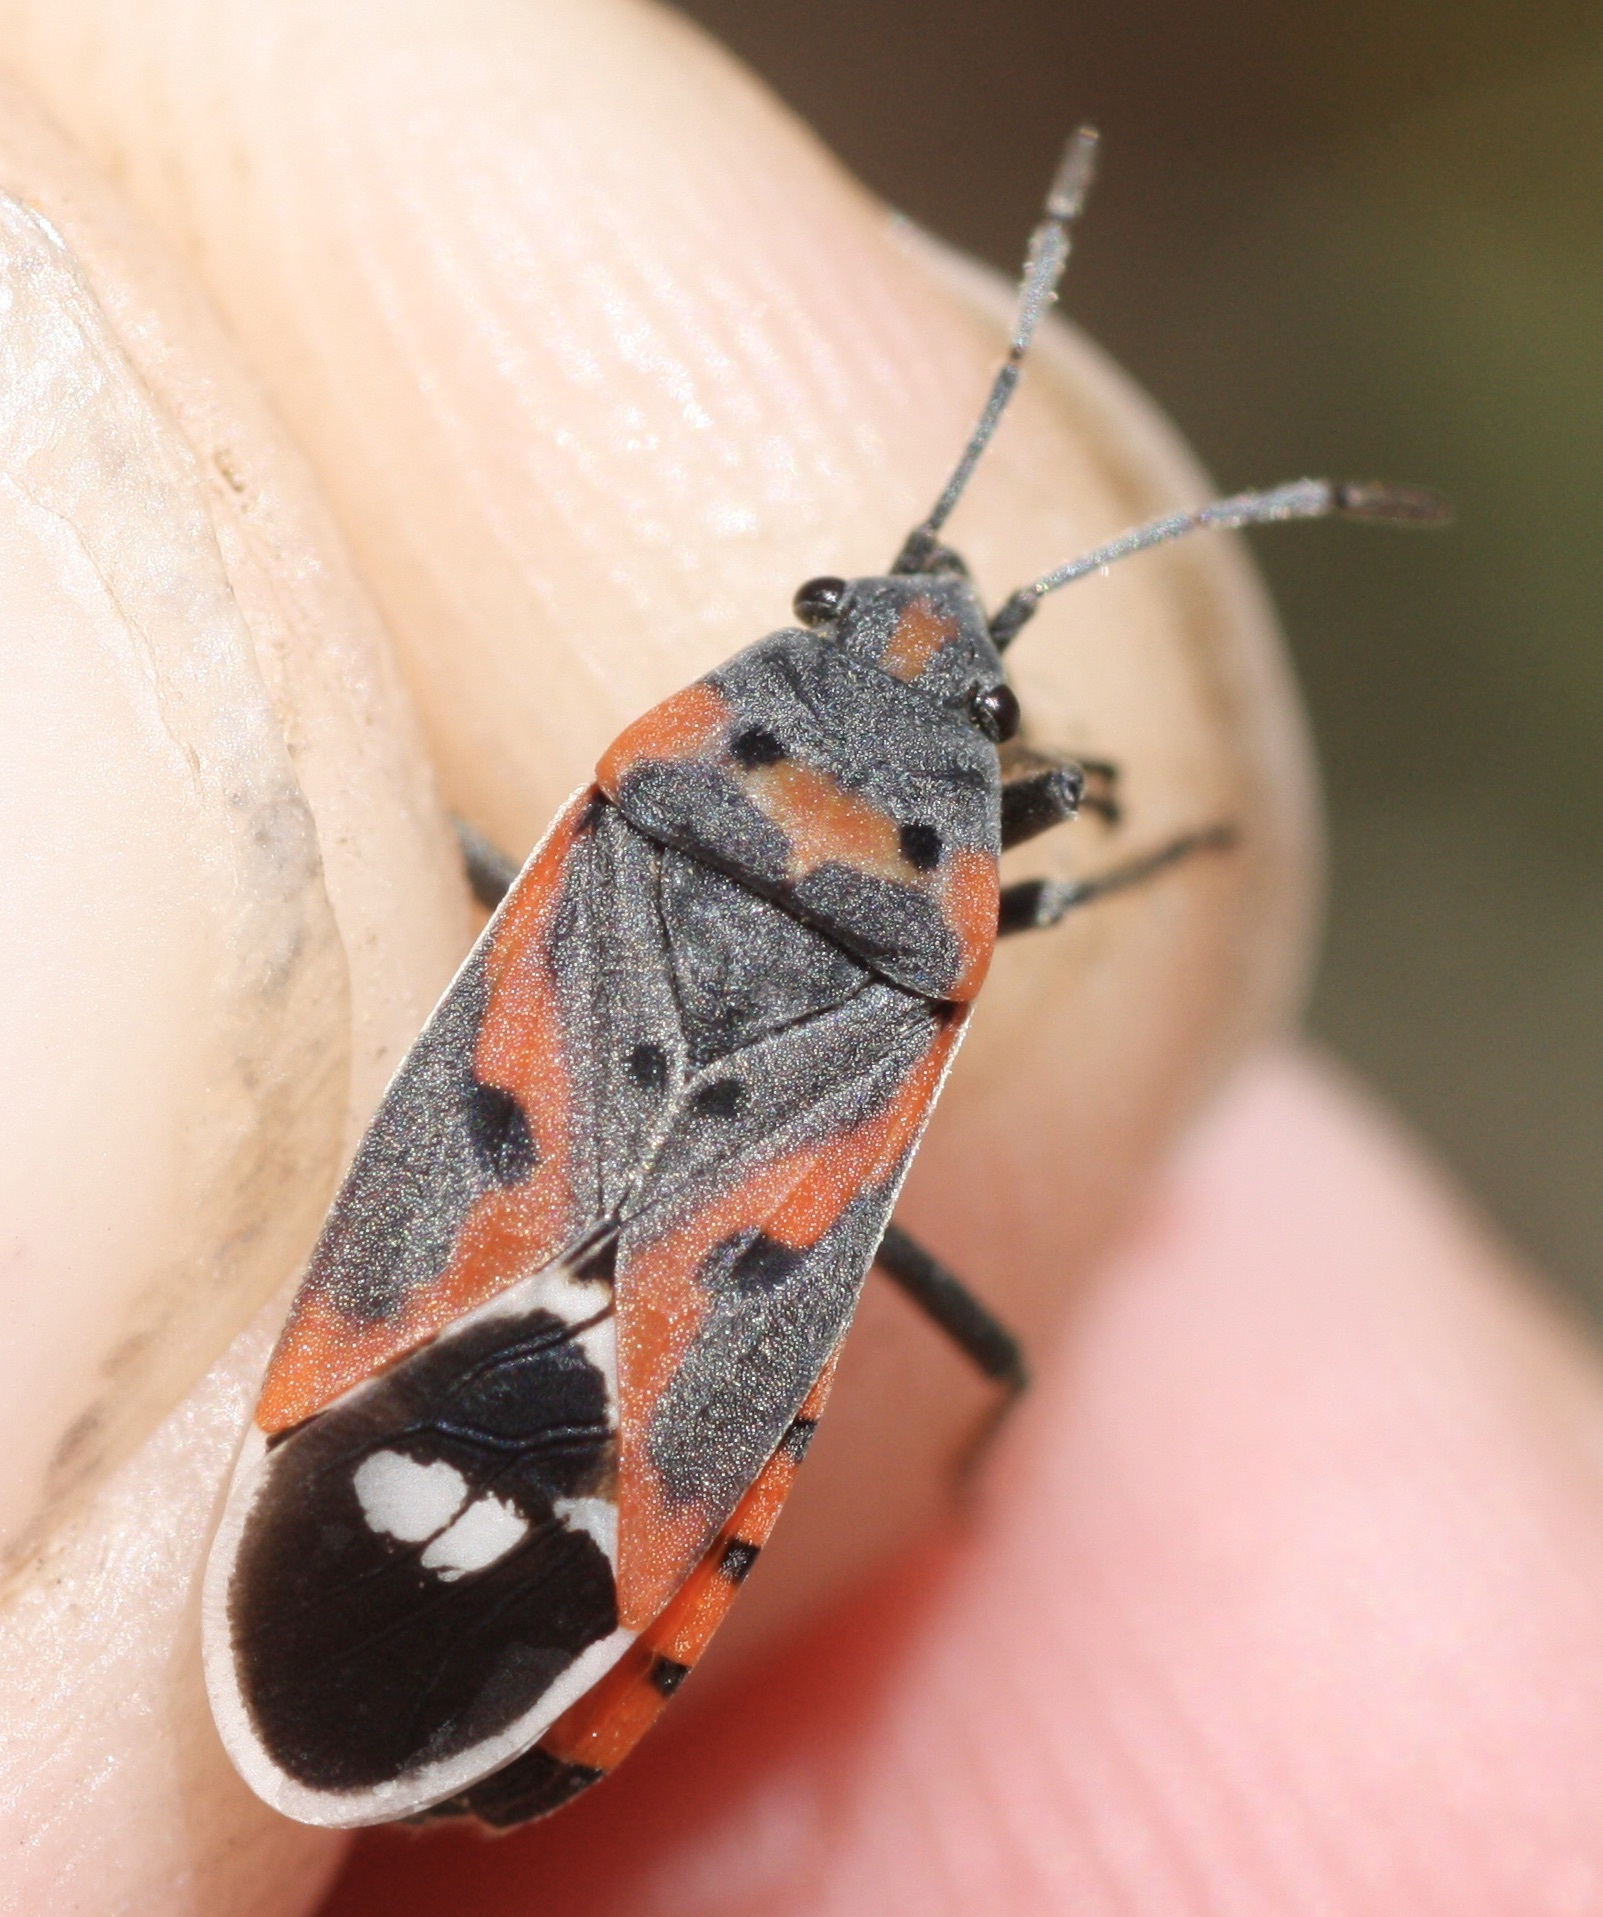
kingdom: Animalia
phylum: Arthropoda
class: Insecta
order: Hemiptera
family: Lygaeidae
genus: Lygaeus
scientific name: Lygaeus kalmii
